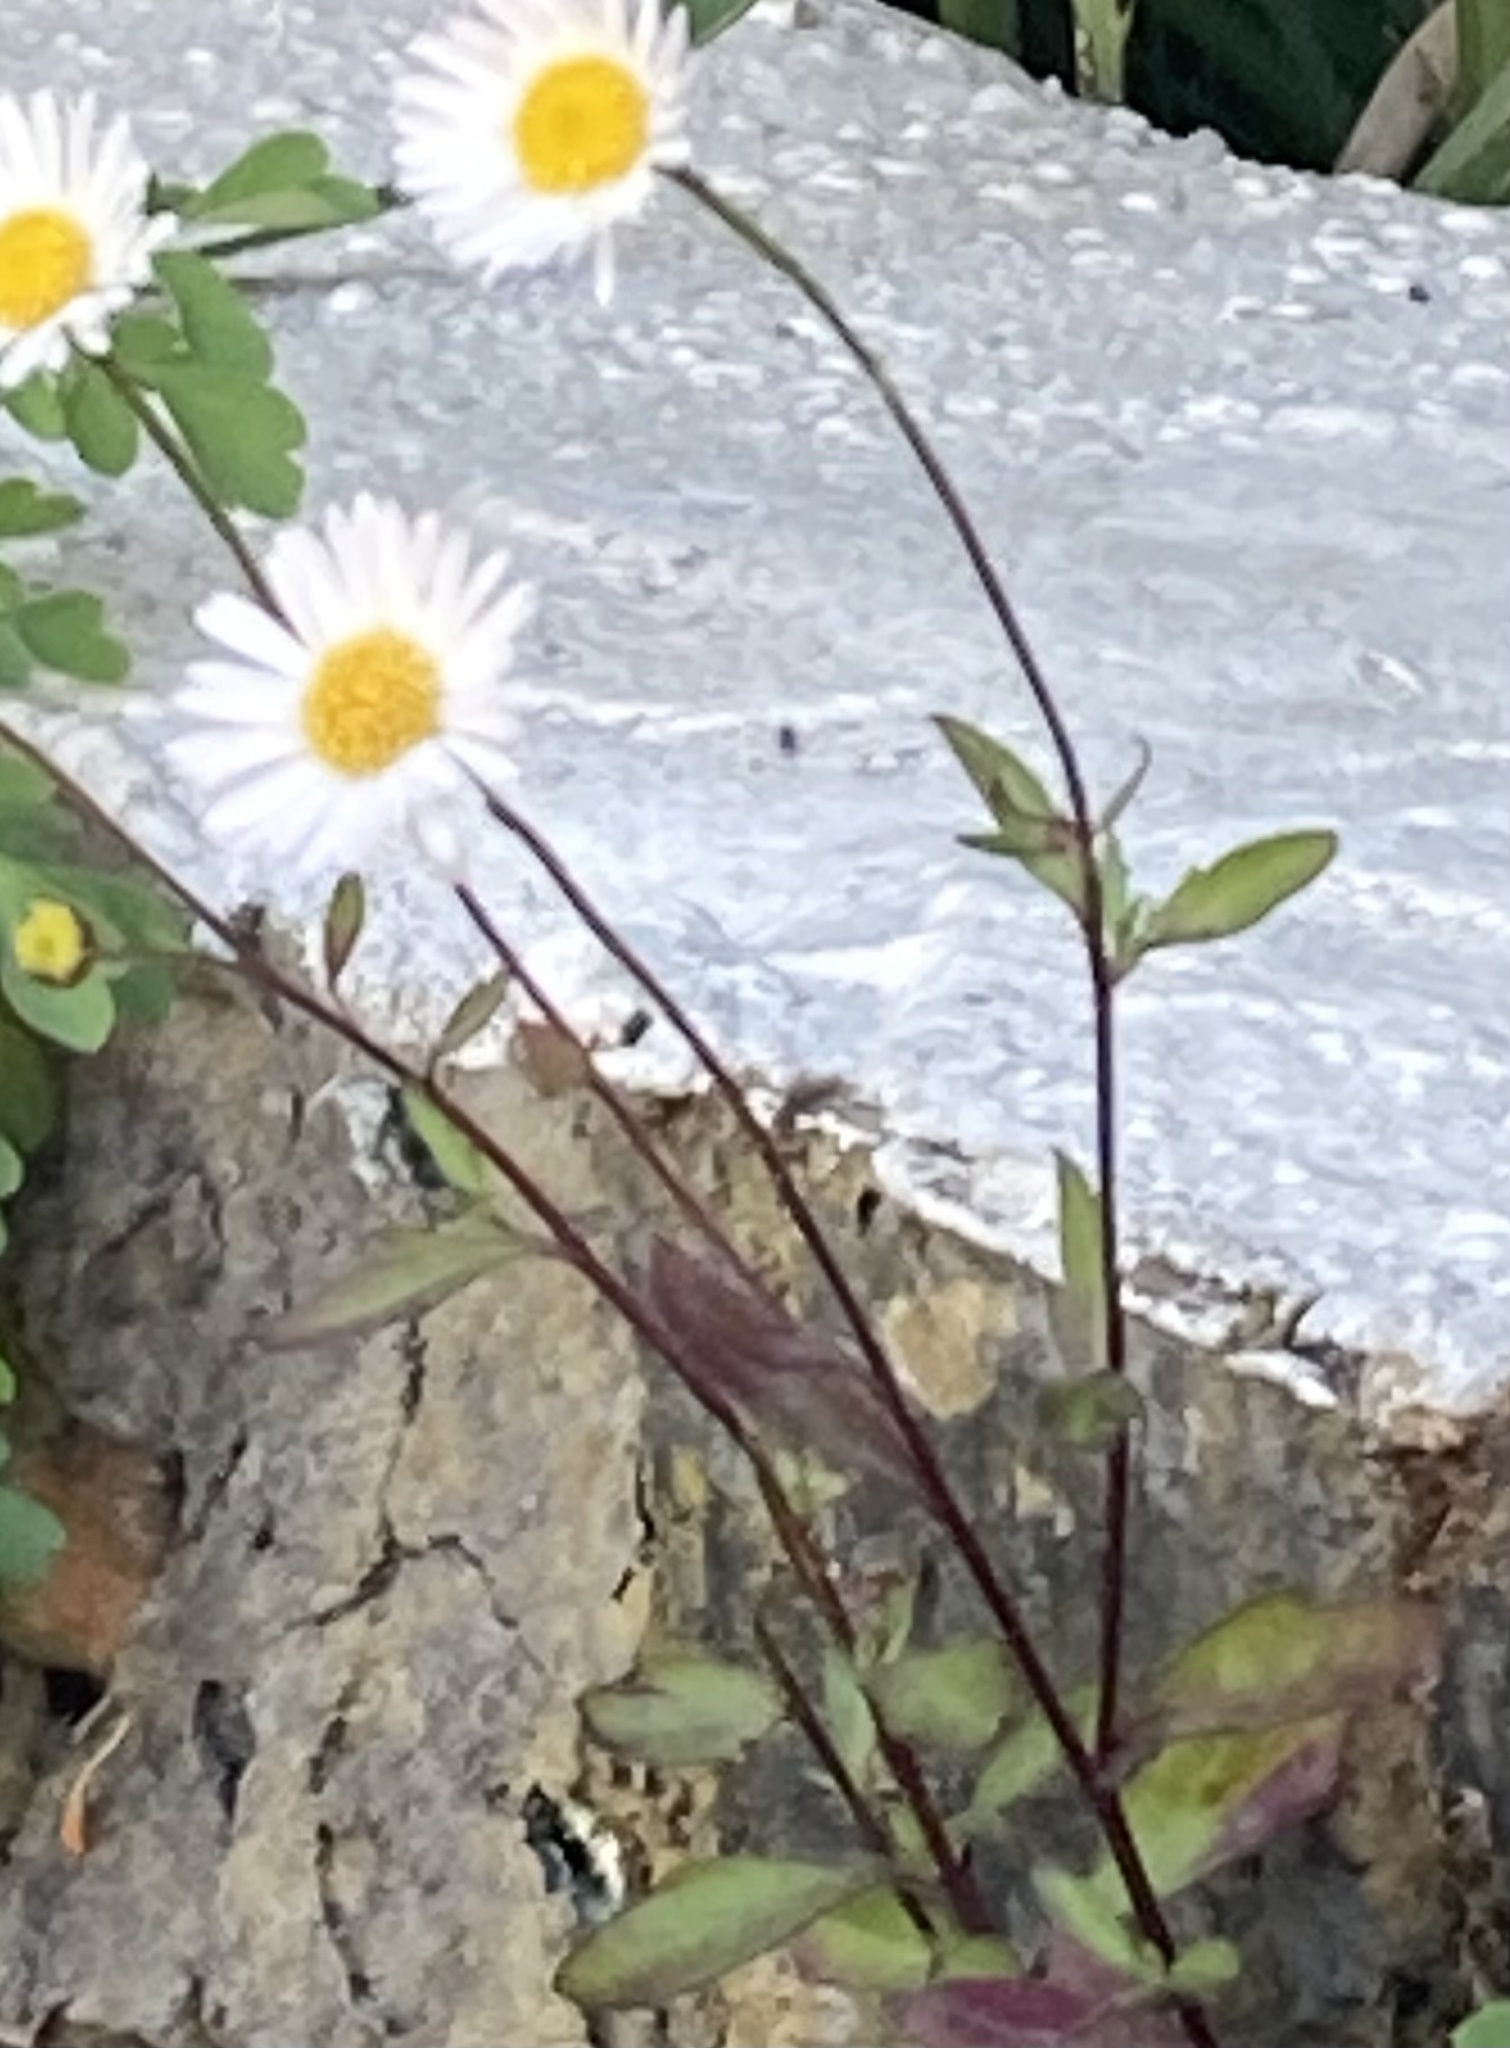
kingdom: Plantae
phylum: Tracheophyta
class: Magnoliopsida
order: Asterales
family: Asteraceae
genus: Erigeron
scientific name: Erigeron karvinskianus
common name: Mexican fleabane
